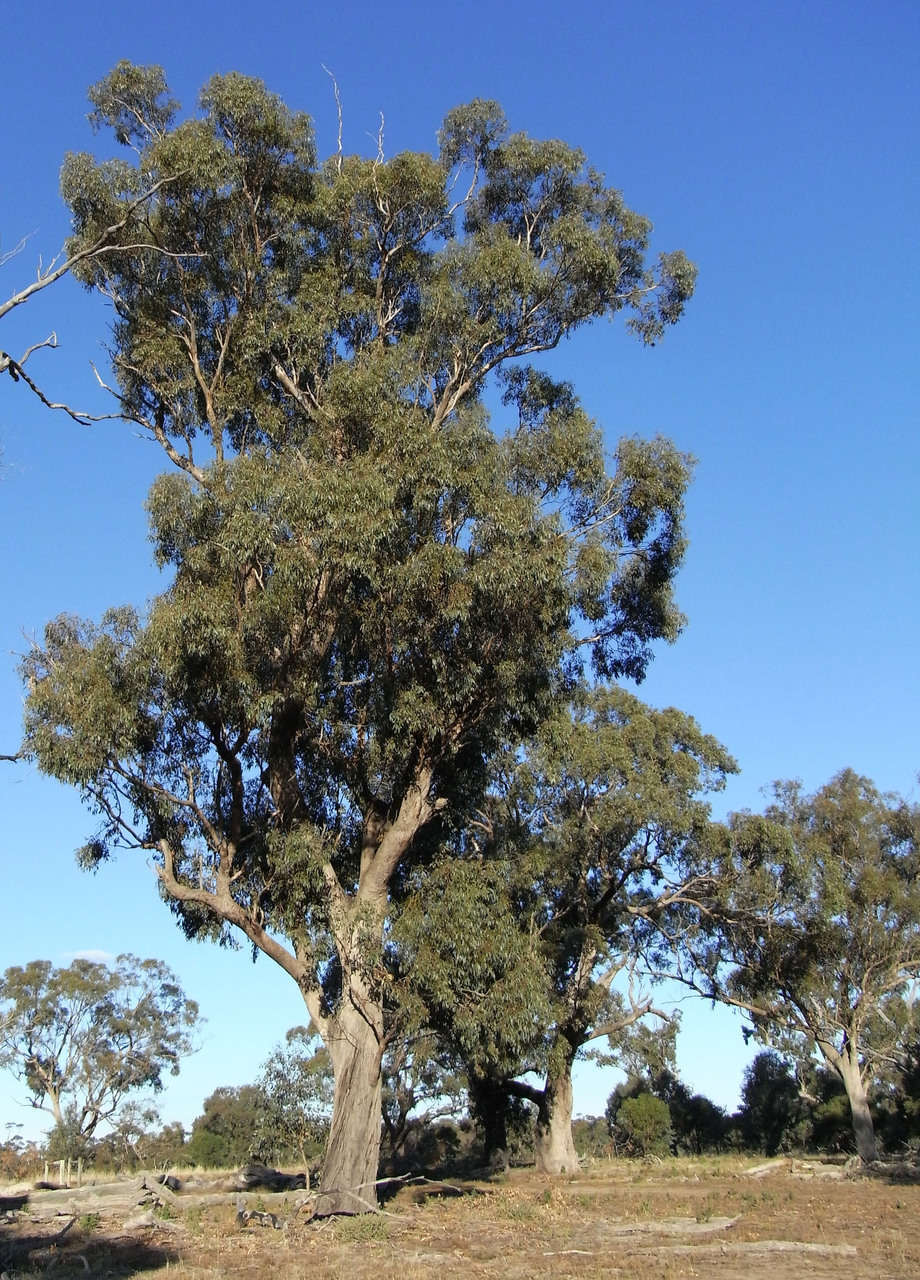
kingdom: Plantae
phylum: Tracheophyta
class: Magnoliopsida
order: Myrtales
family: Myrtaceae
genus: Eucalyptus
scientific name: Eucalyptus microcarpa
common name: Grey-box
